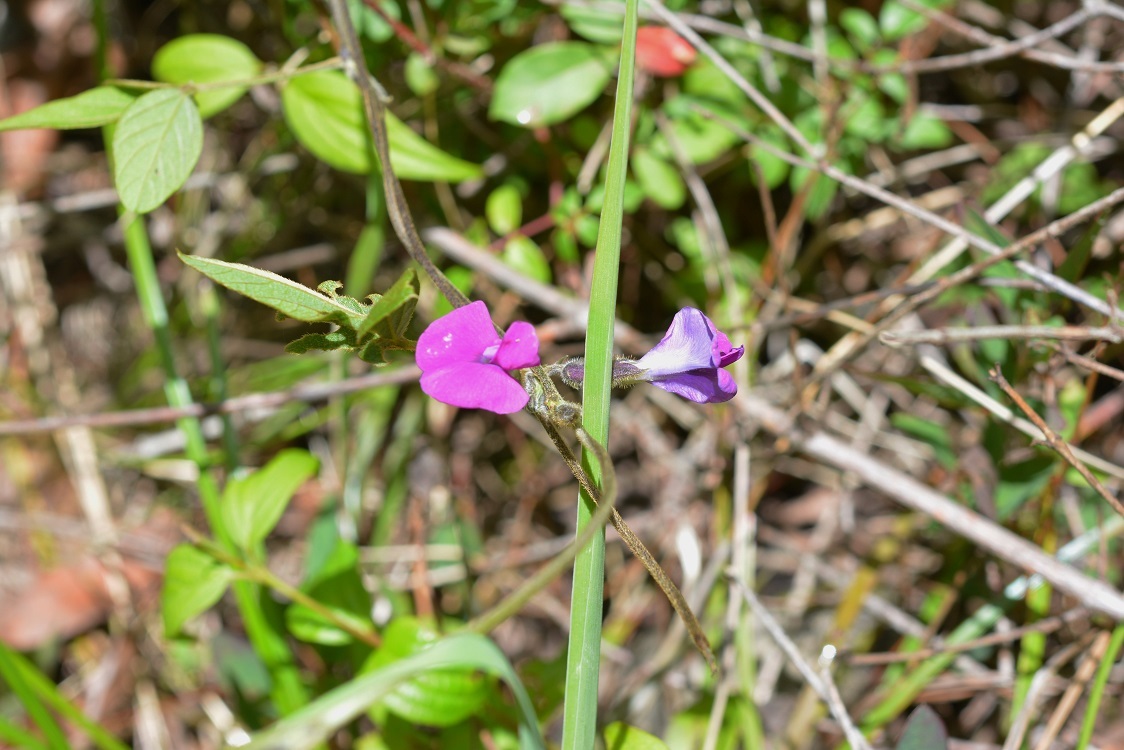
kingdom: Plantae
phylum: Tracheophyta
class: Magnoliopsida
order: Fabales
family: Fabaceae
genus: Cologania
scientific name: Cologania broussonetii
